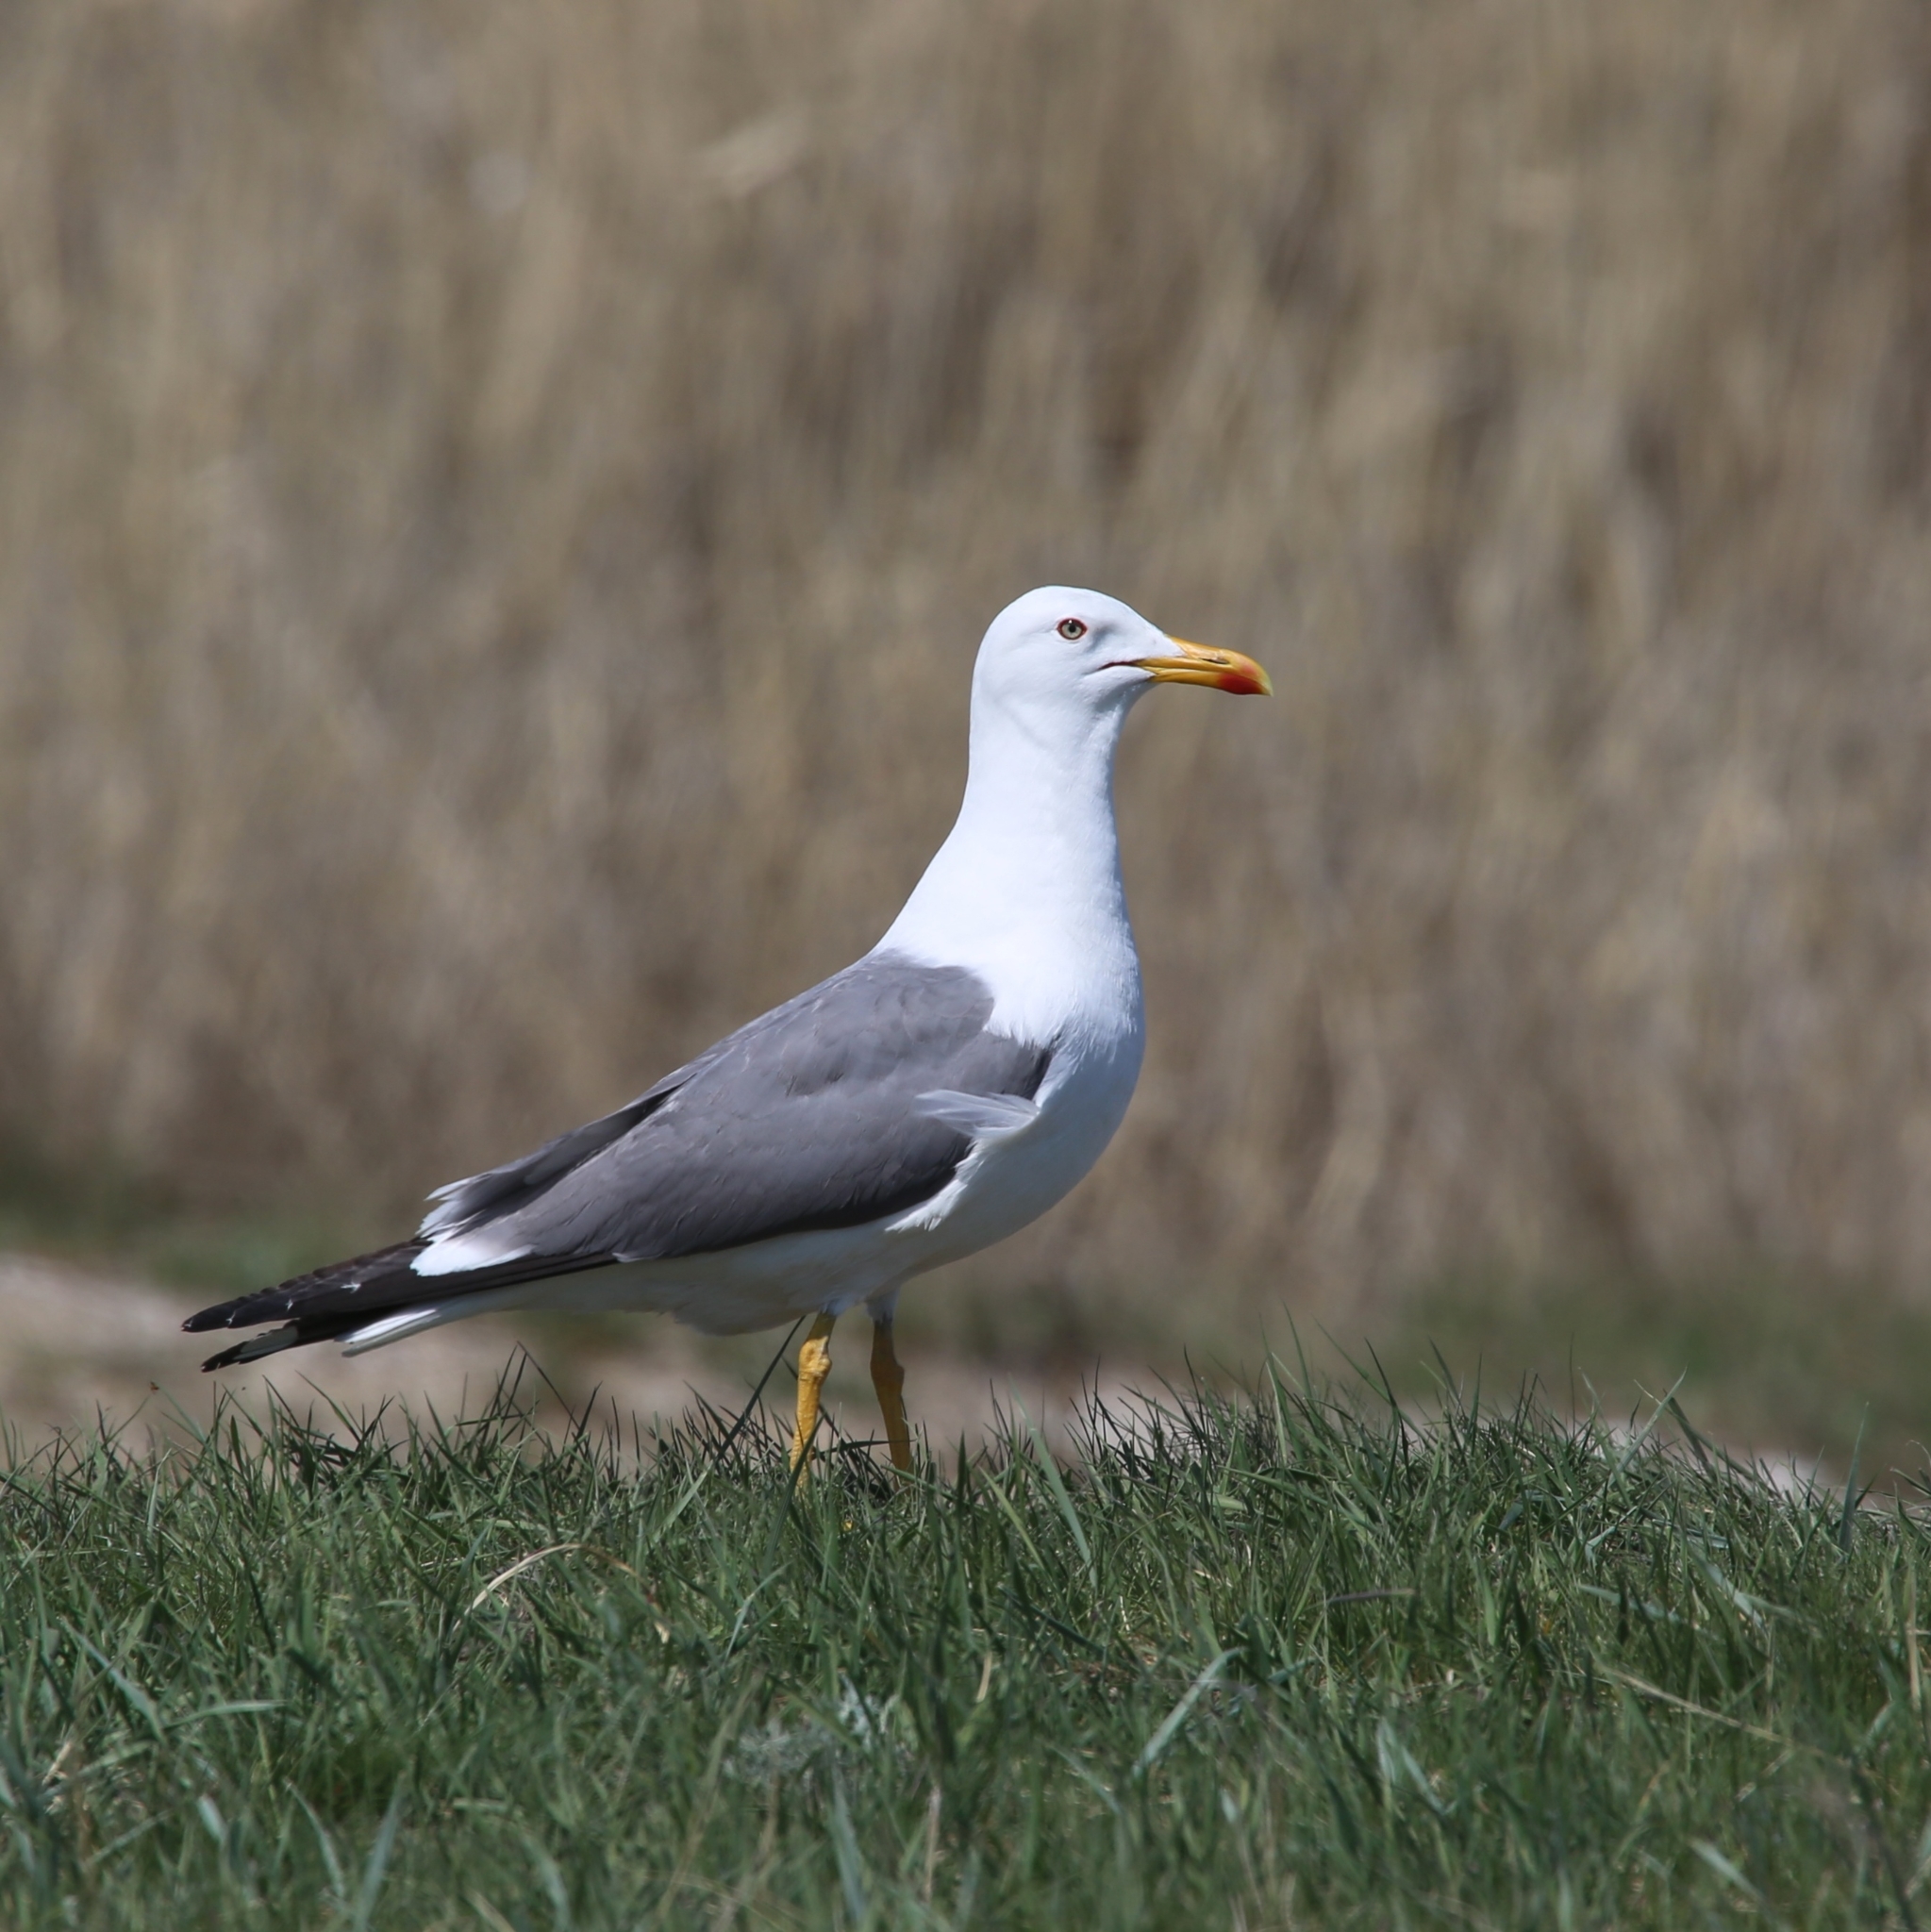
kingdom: Animalia
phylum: Chordata
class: Aves
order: Charadriiformes
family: Laridae
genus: Larus
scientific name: Larus fuscus
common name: Lesser black-backed gull
